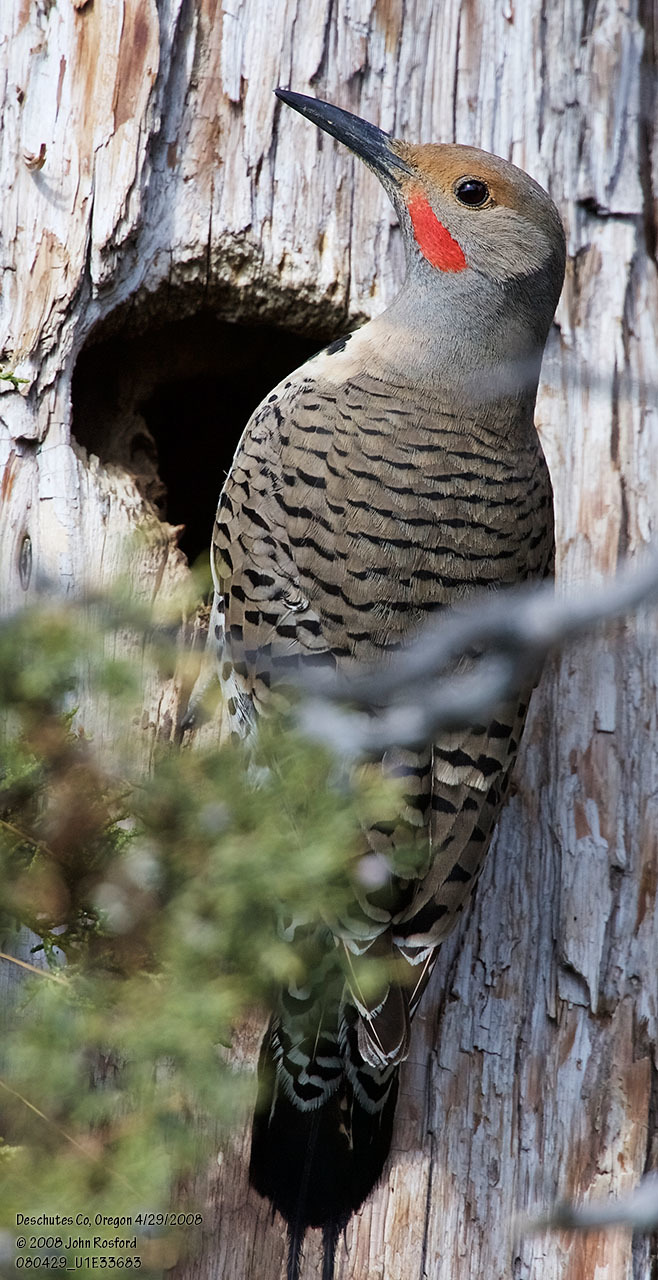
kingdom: Animalia
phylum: Chordata
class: Aves
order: Piciformes
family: Picidae
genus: Colaptes
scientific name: Colaptes auratus
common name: Northern flicker
